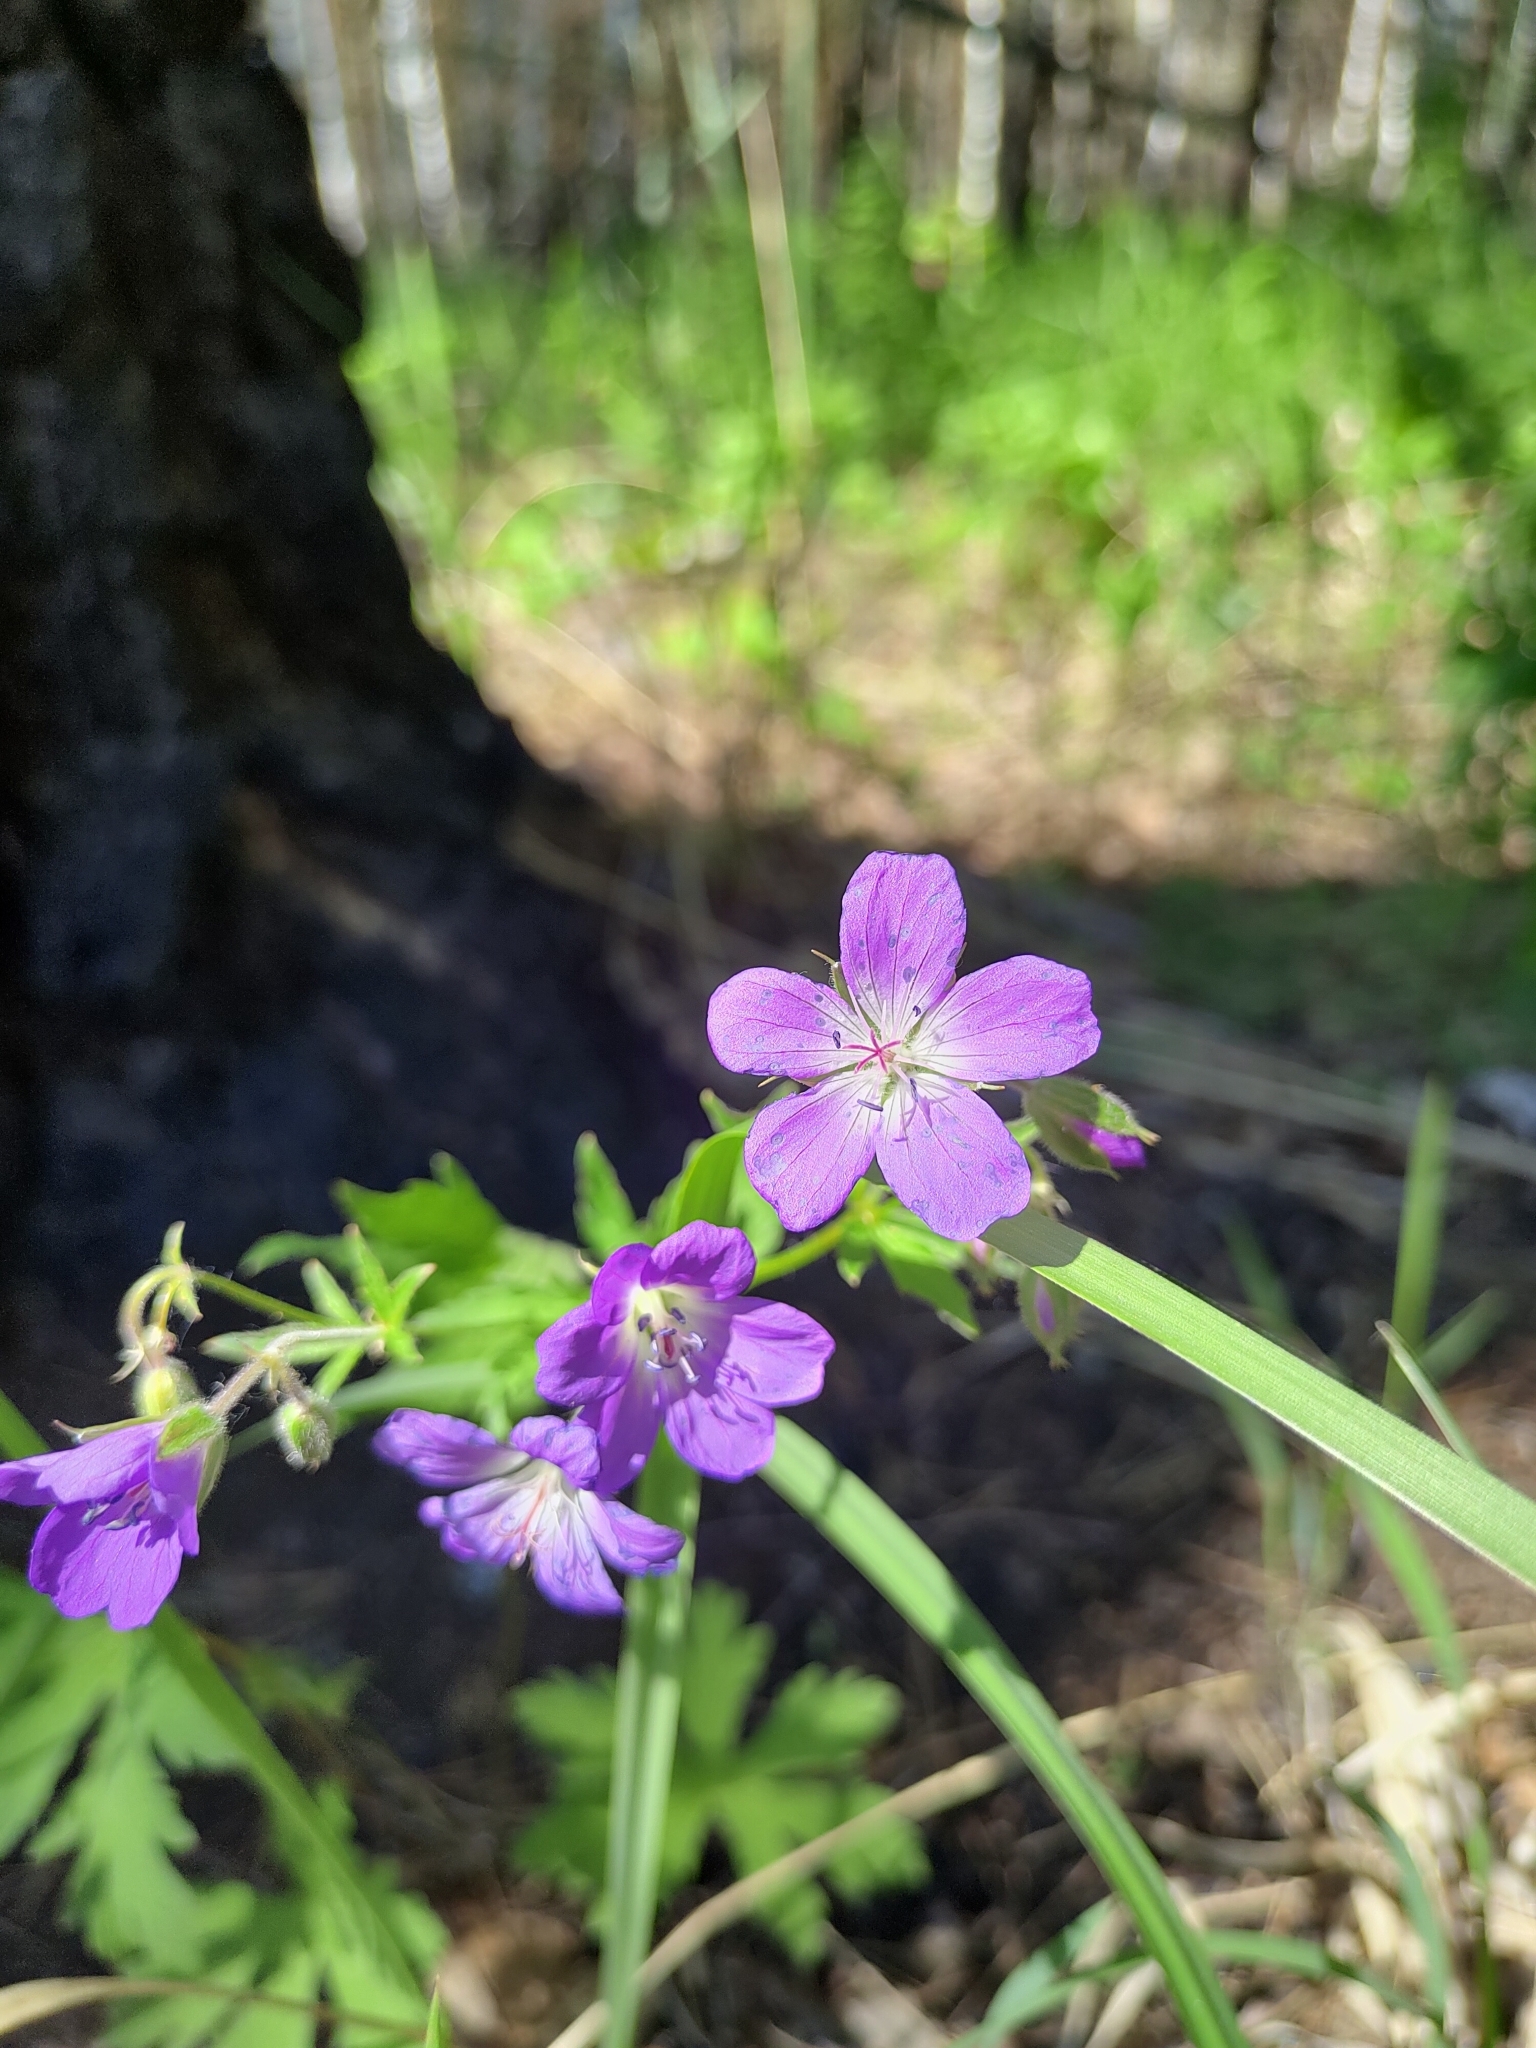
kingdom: Plantae
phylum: Tracheophyta
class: Magnoliopsida
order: Geraniales
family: Geraniaceae
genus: Geranium
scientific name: Geranium sylvaticum
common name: Wood crane's-bill
